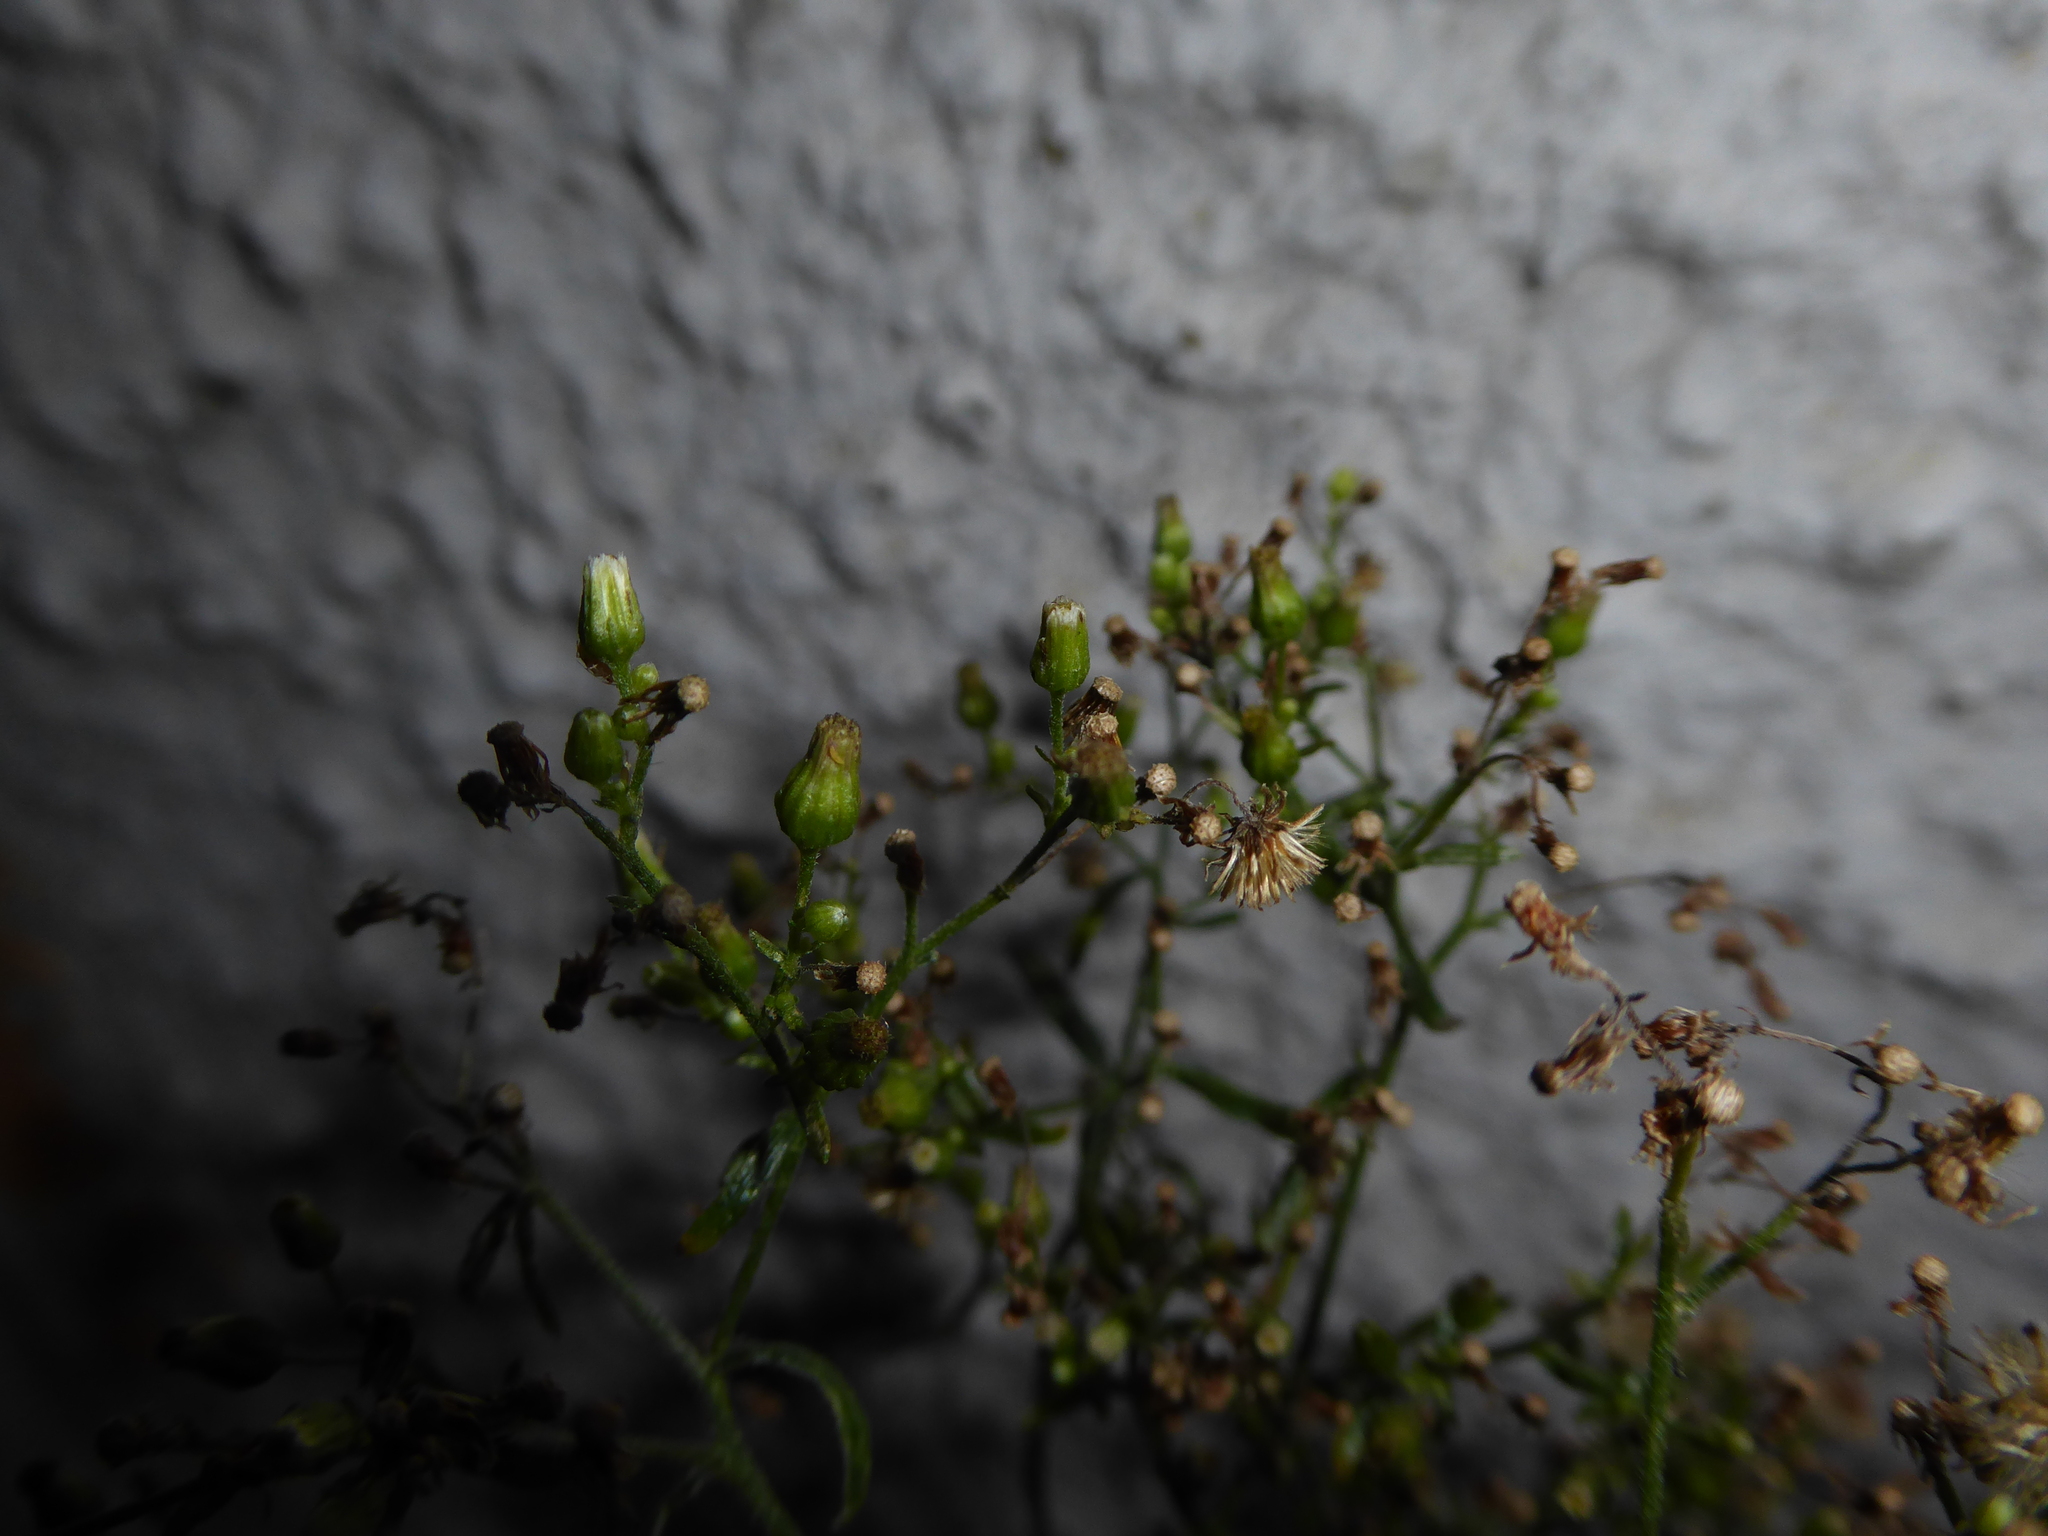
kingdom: Plantae
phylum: Tracheophyta
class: Magnoliopsida
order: Asterales
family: Asteraceae
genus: Erigeron
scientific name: Erigeron floribundus
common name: Bilbao fleabane
